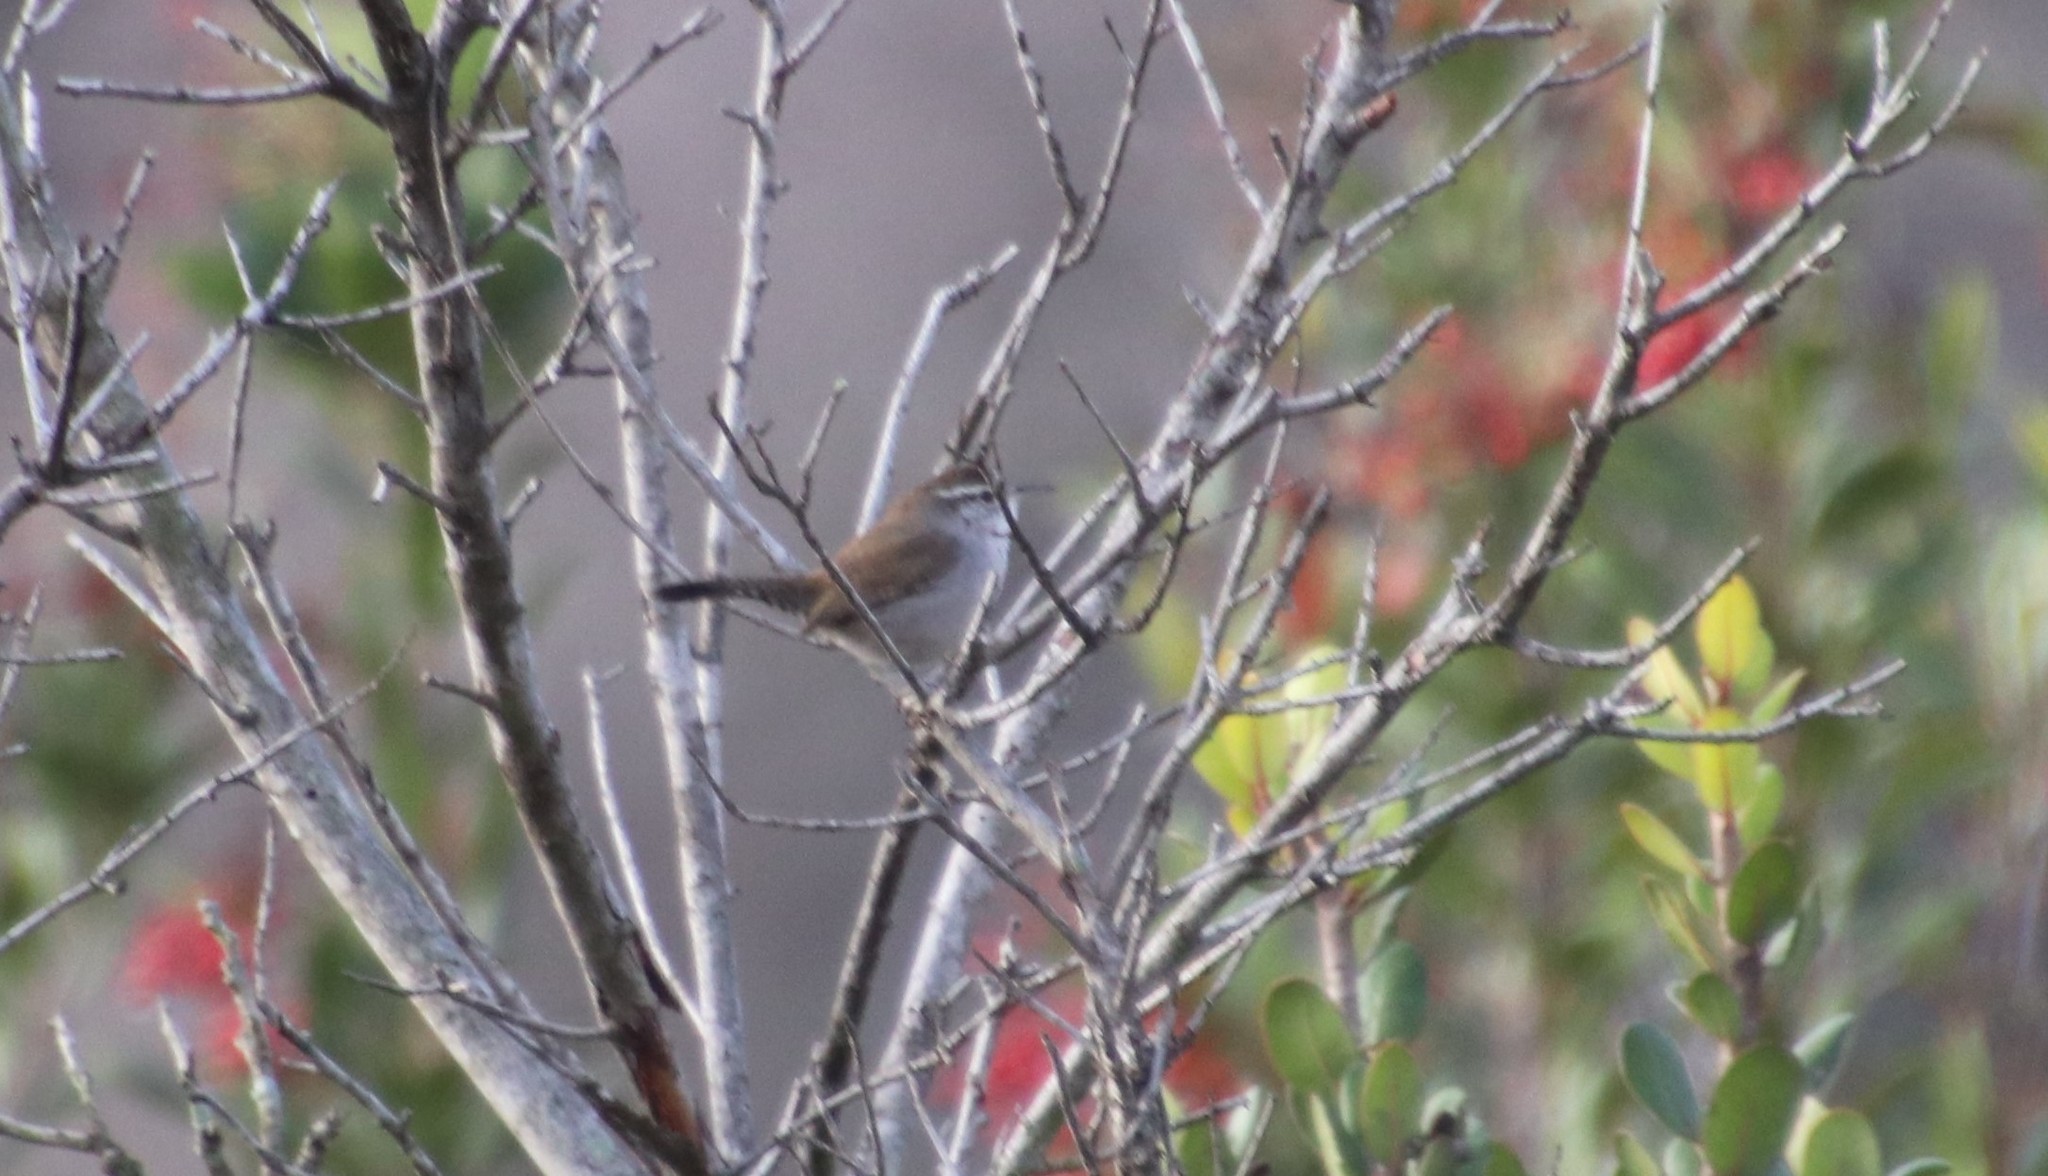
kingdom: Animalia
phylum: Chordata
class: Aves
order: Passeriformes
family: Troglodytidae
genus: Thryomanes
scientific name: Thryomanes bewickii
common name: Bewick's wren
